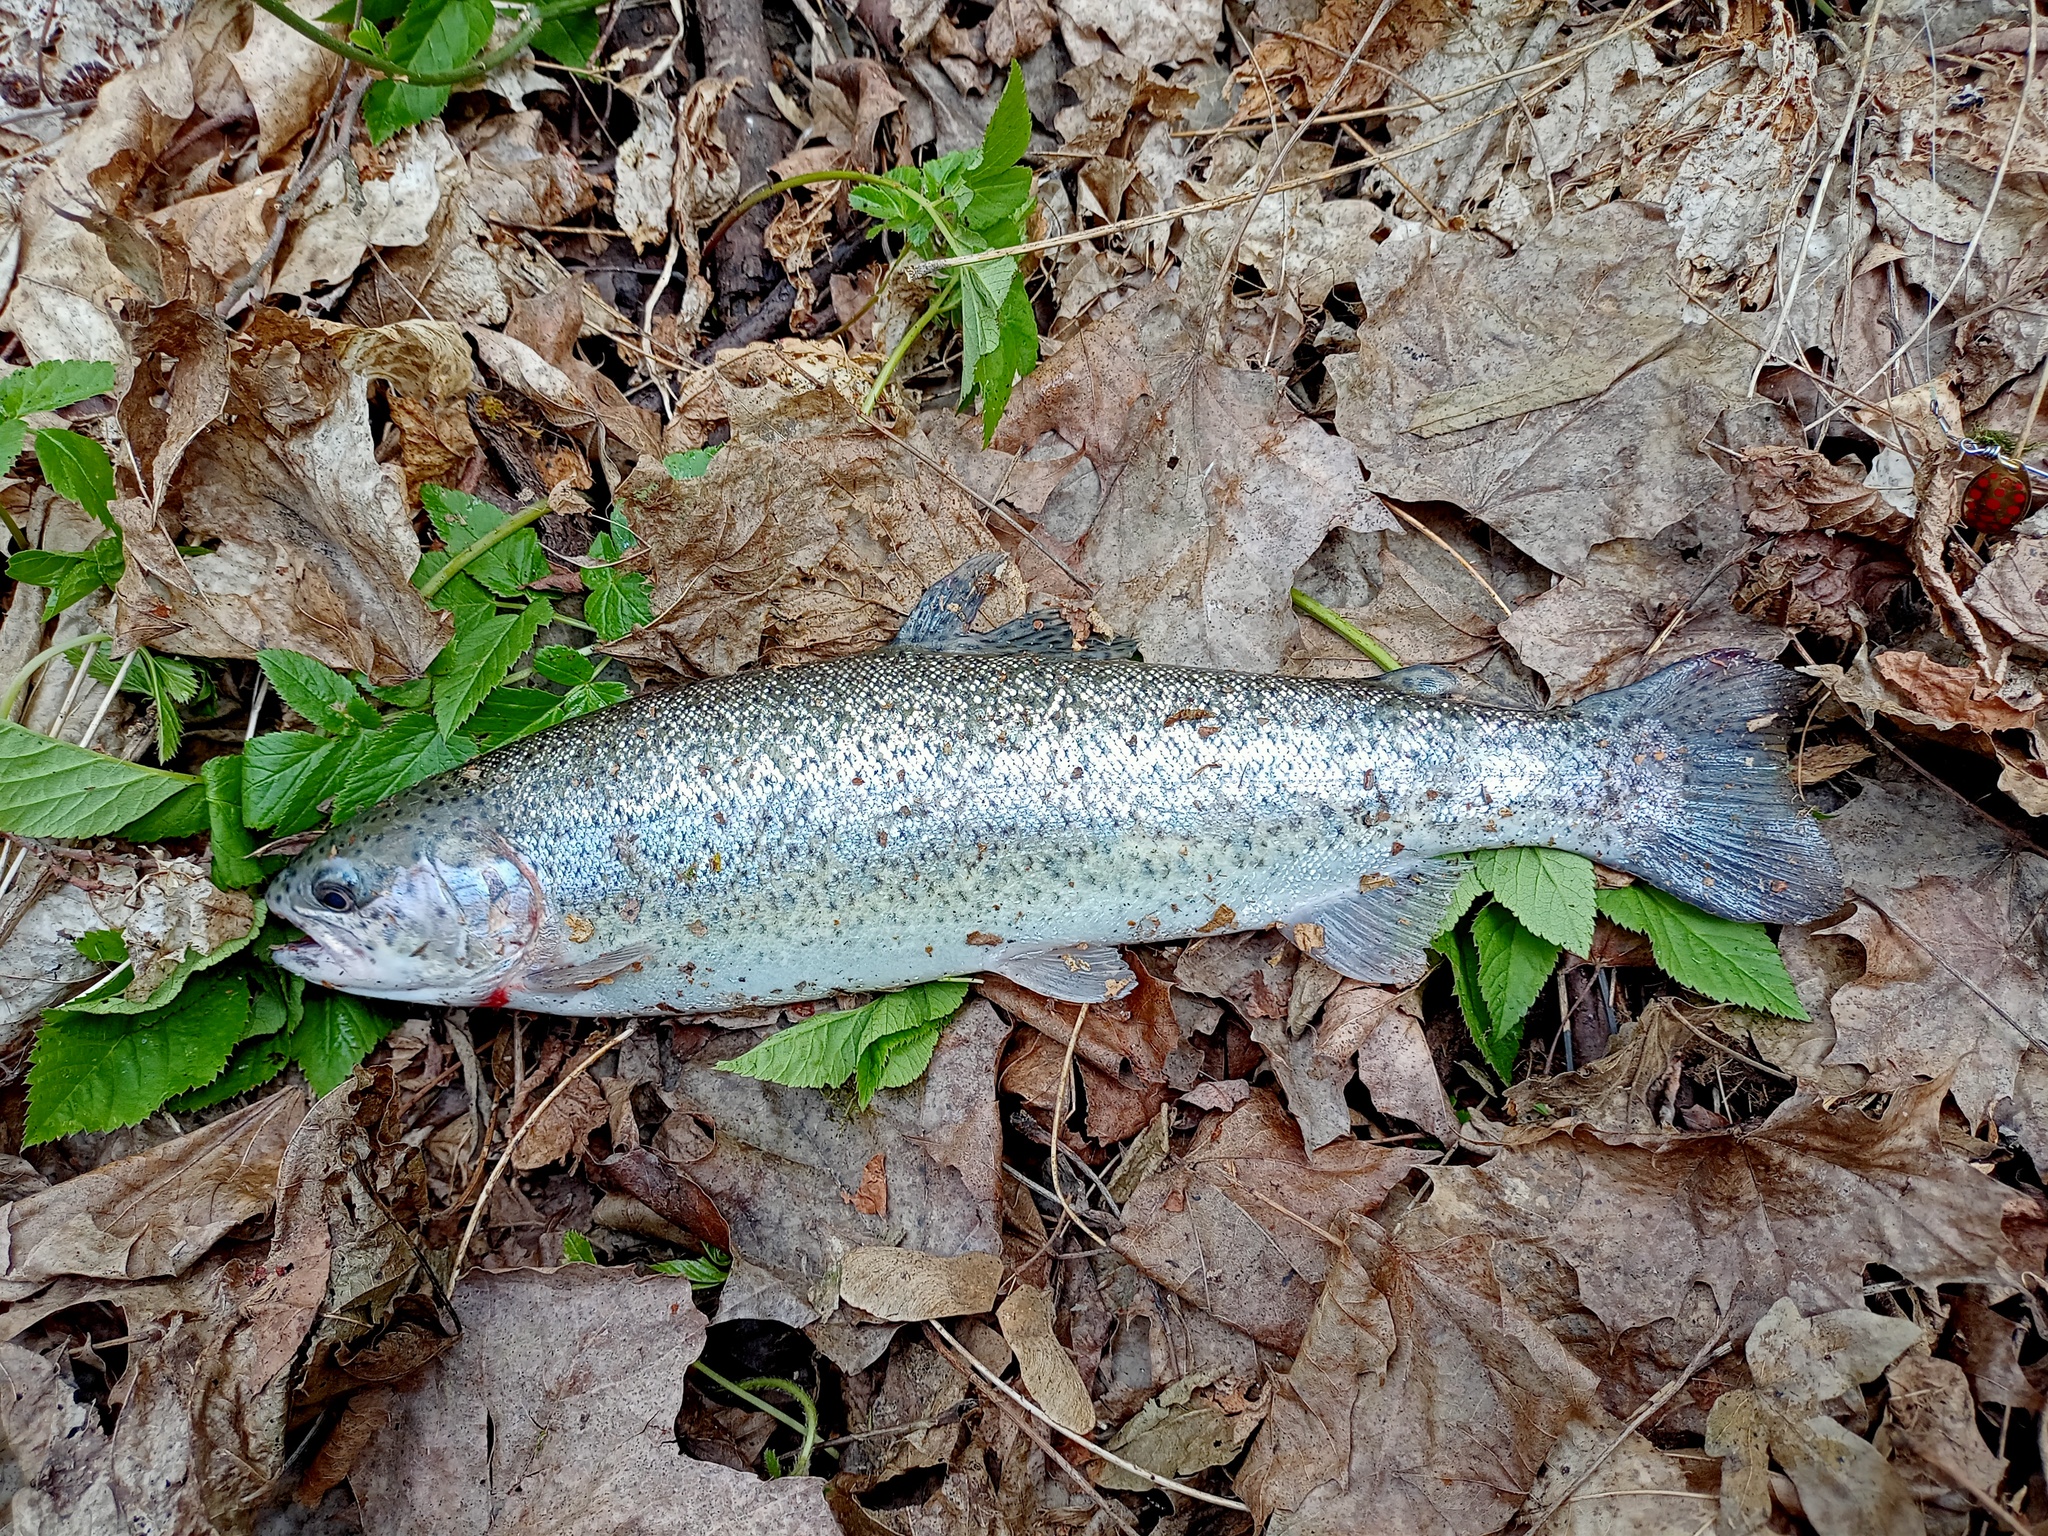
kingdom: Animalia
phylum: Chordata
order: Salmoniformes
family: Salmonidae
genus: Oncorhynchus
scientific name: Oncorhynchus mykiss
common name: Rainbow trout
